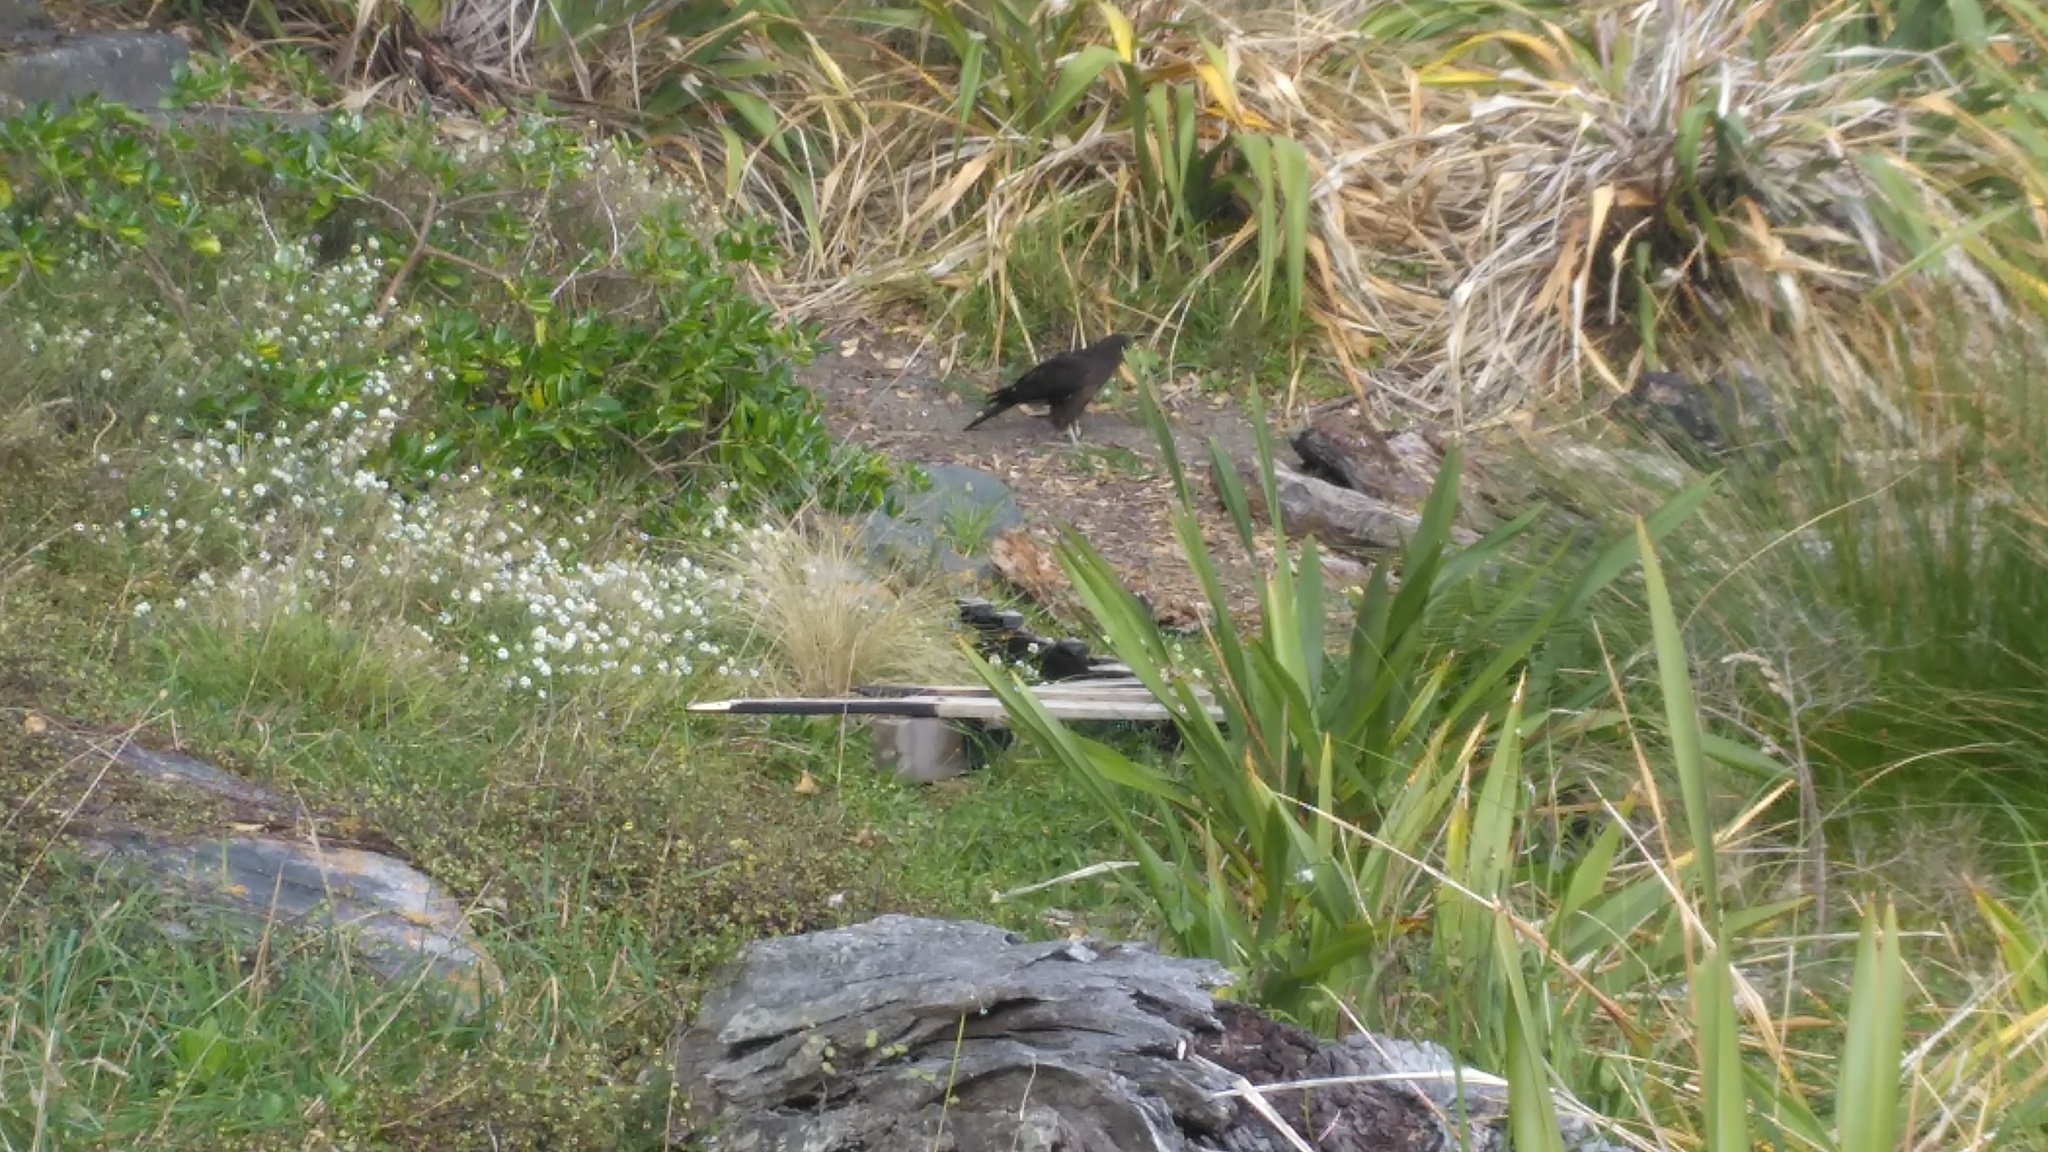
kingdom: Animalia
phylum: Chordata
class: Aves
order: Falconiformes
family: Falconidae
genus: Falco
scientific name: Falco novaeseelandiae
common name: New zealand falcon
